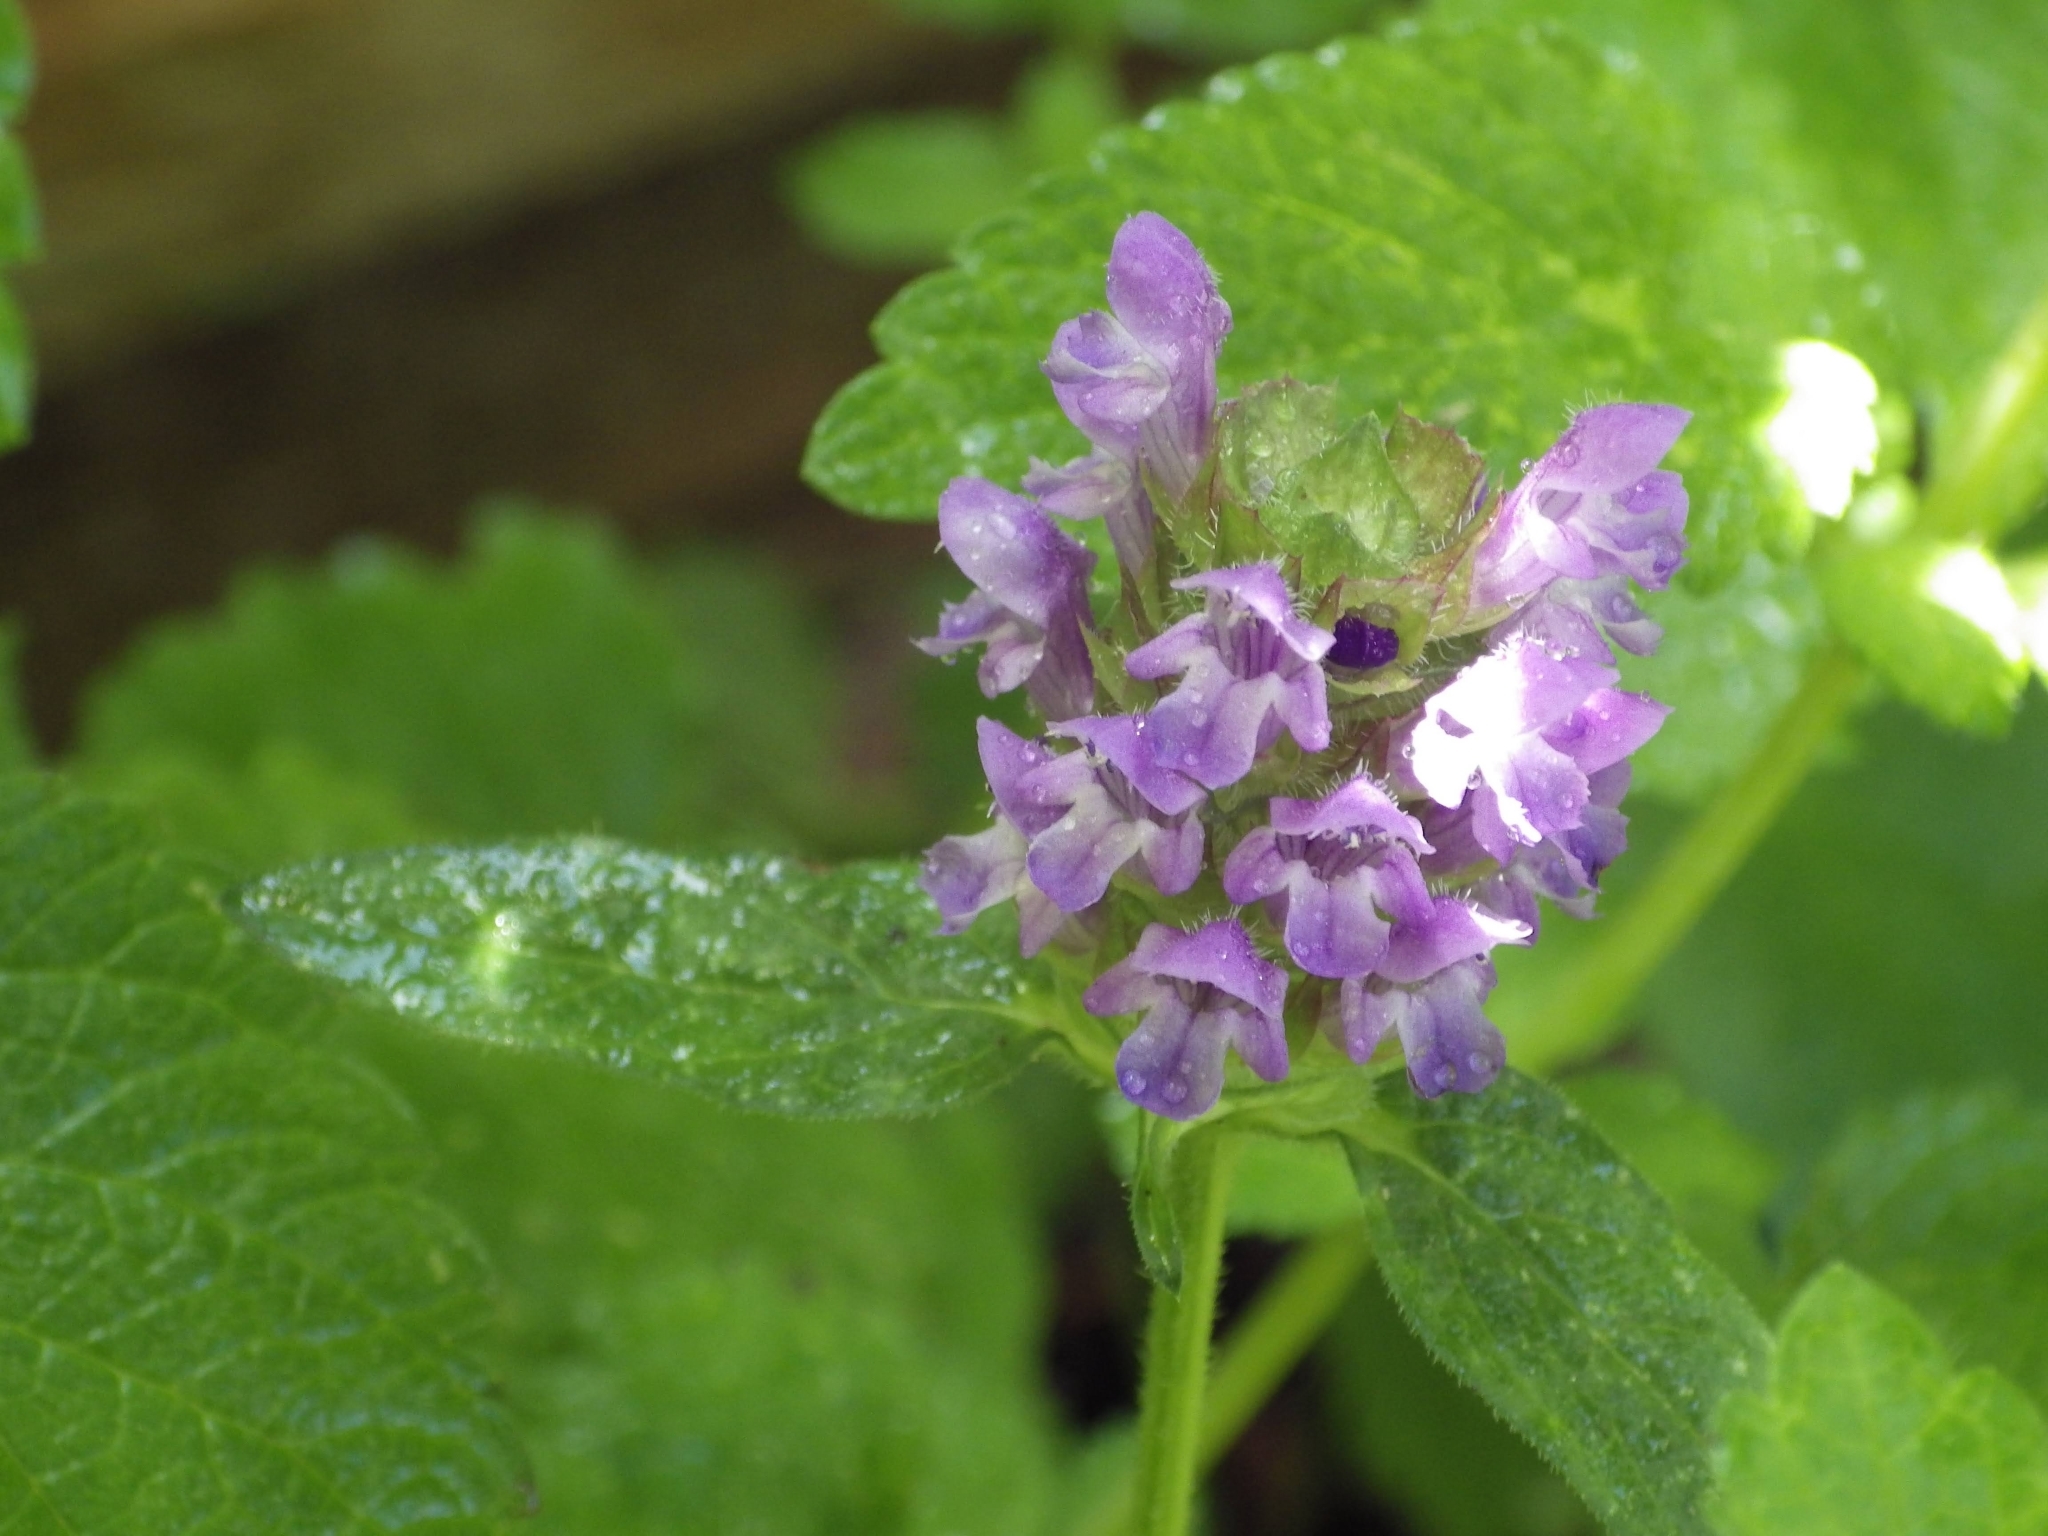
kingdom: Plantae
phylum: Tracheophyta
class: Magnoliopsida
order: Lamiales
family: Lamiaceae
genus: Prunella
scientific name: Prunella vulgaris
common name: Heal-all
